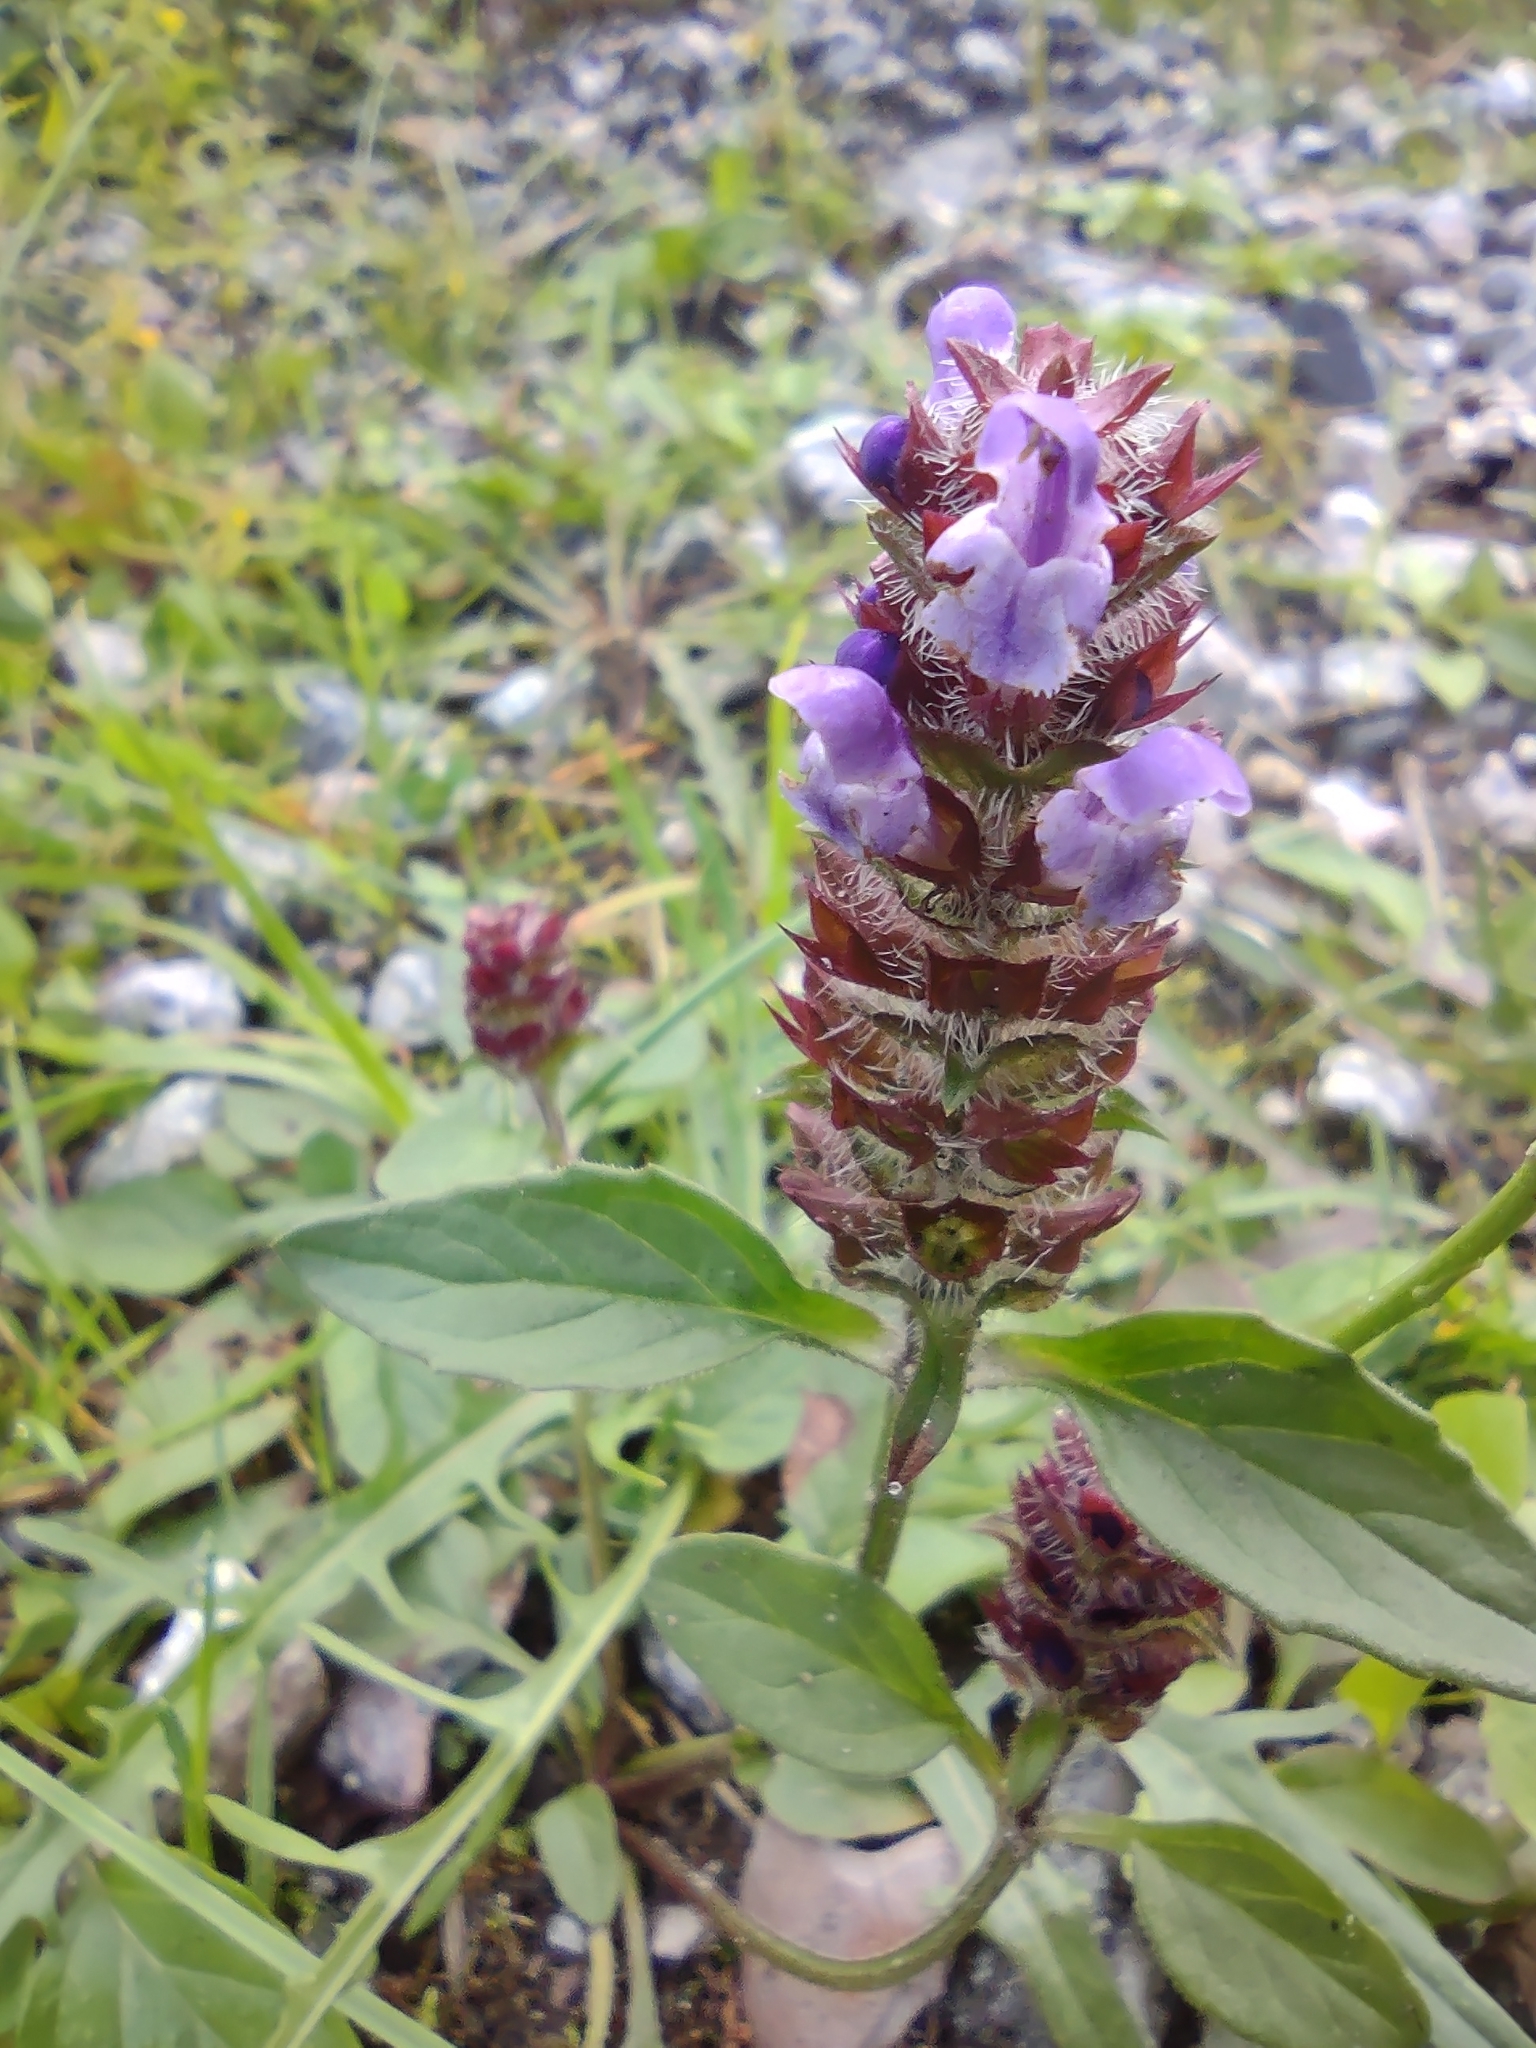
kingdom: Plantae
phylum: Tracheophyta
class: Magnoliopsida
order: Lamiales
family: Lamiaceae
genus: Prunella
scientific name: Prunella vulgaris
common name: Heal-all
